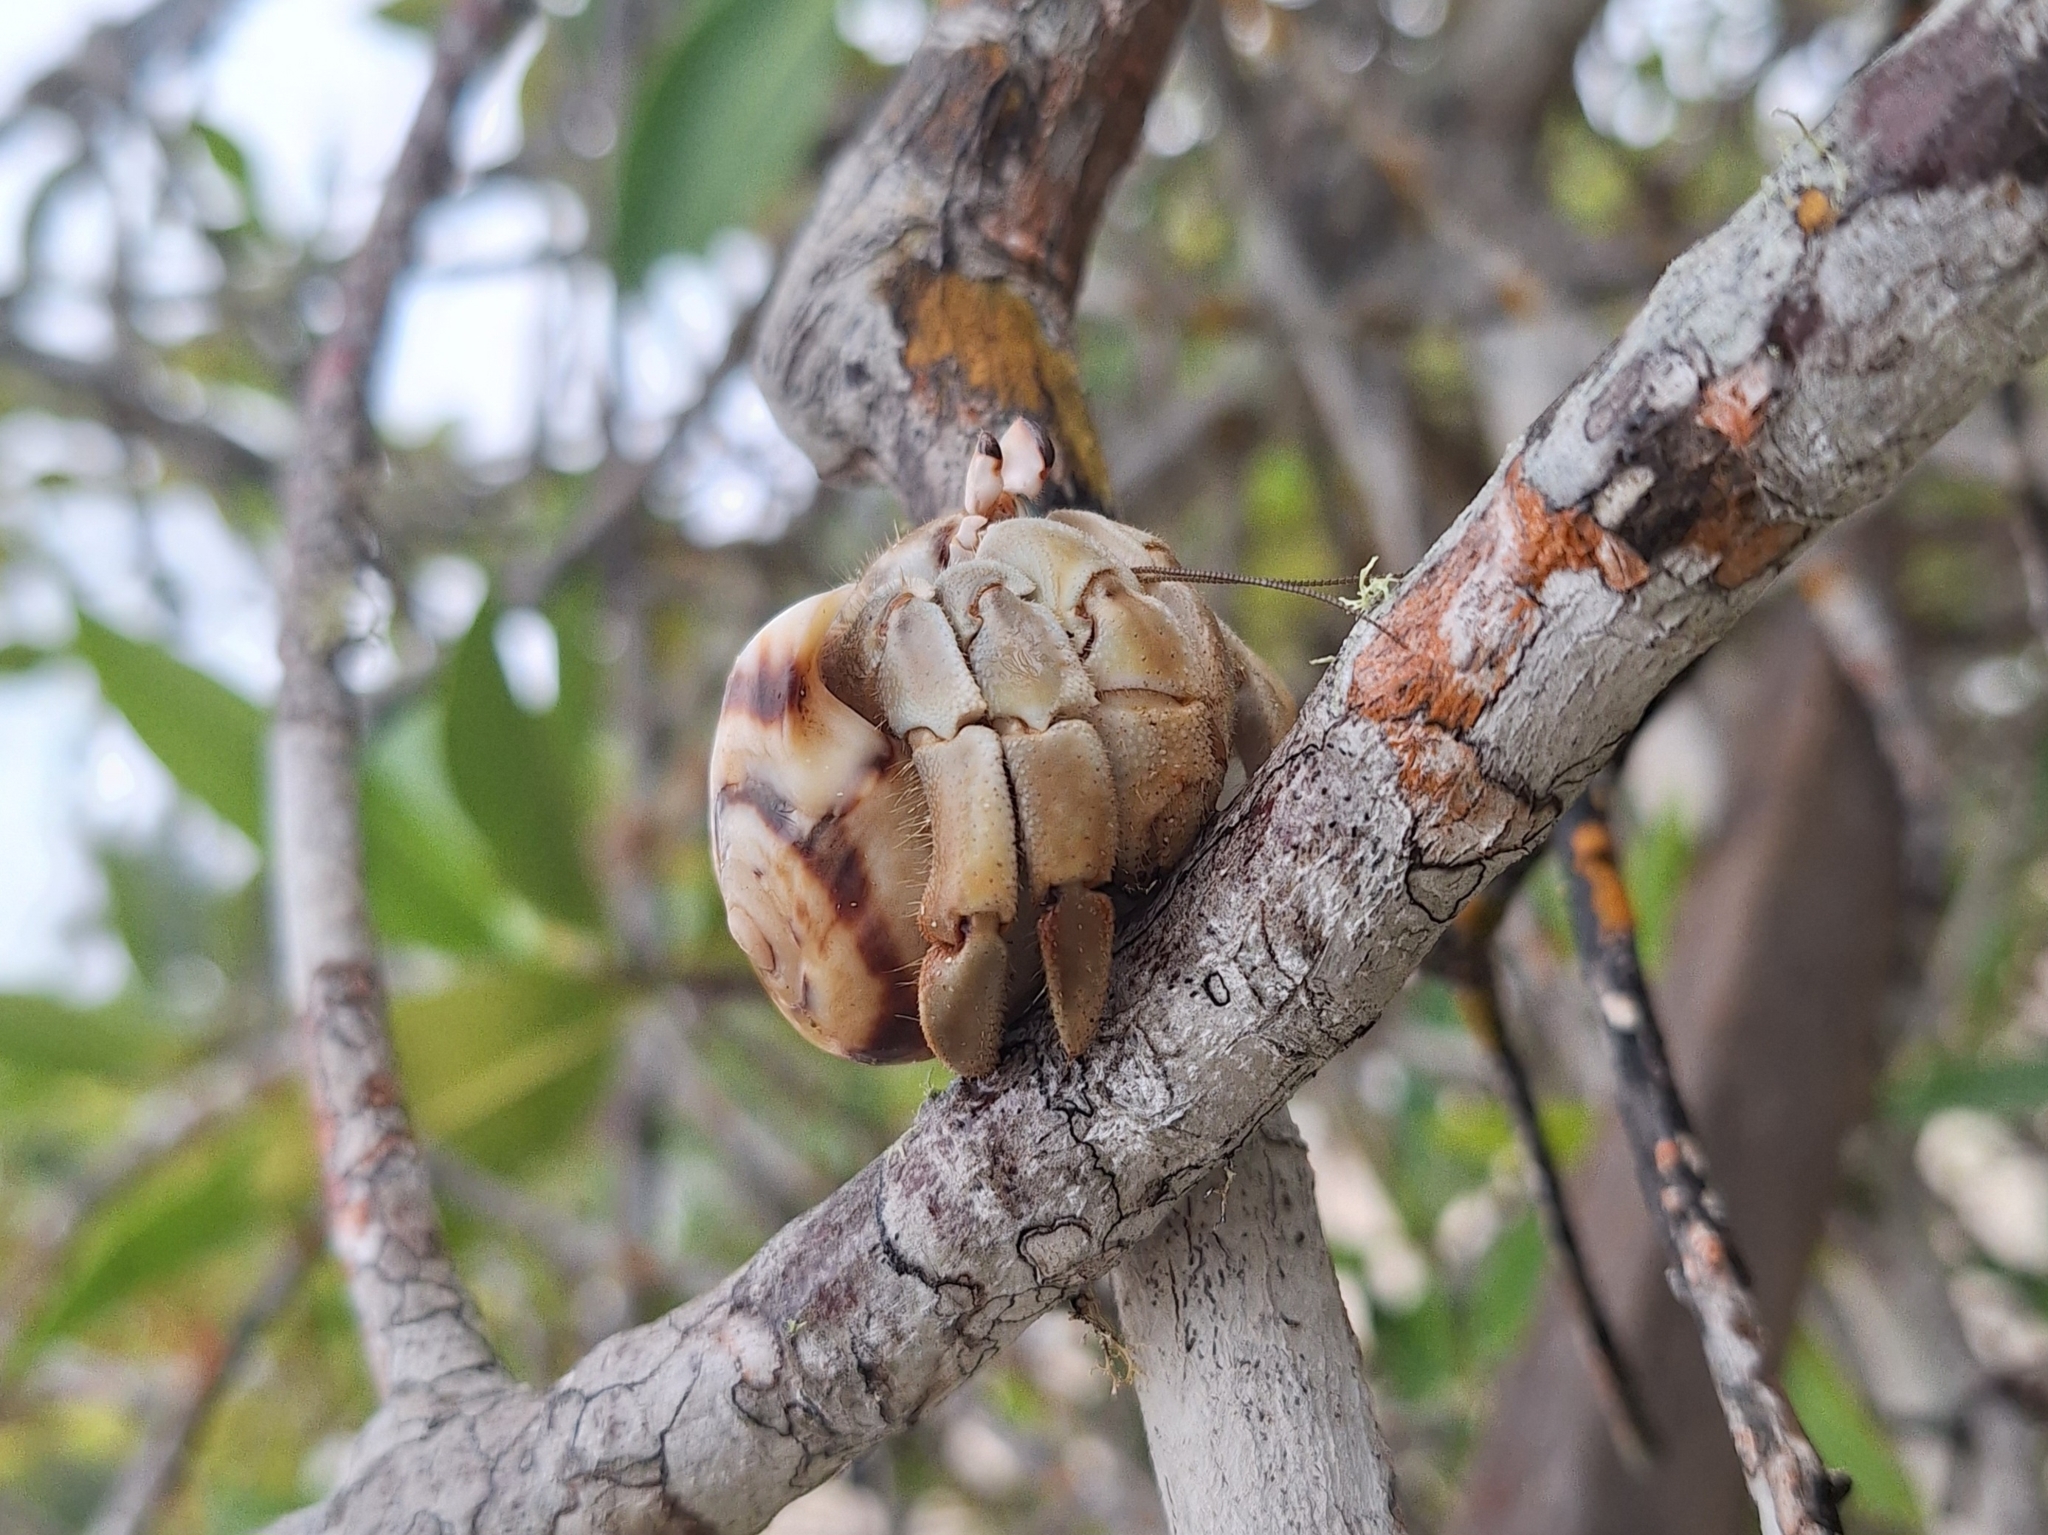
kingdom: Animalia
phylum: Arthropoda
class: Malacostraca
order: Decapoda
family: Coenobitidae
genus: Coenobita
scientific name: Coenobita compressus
